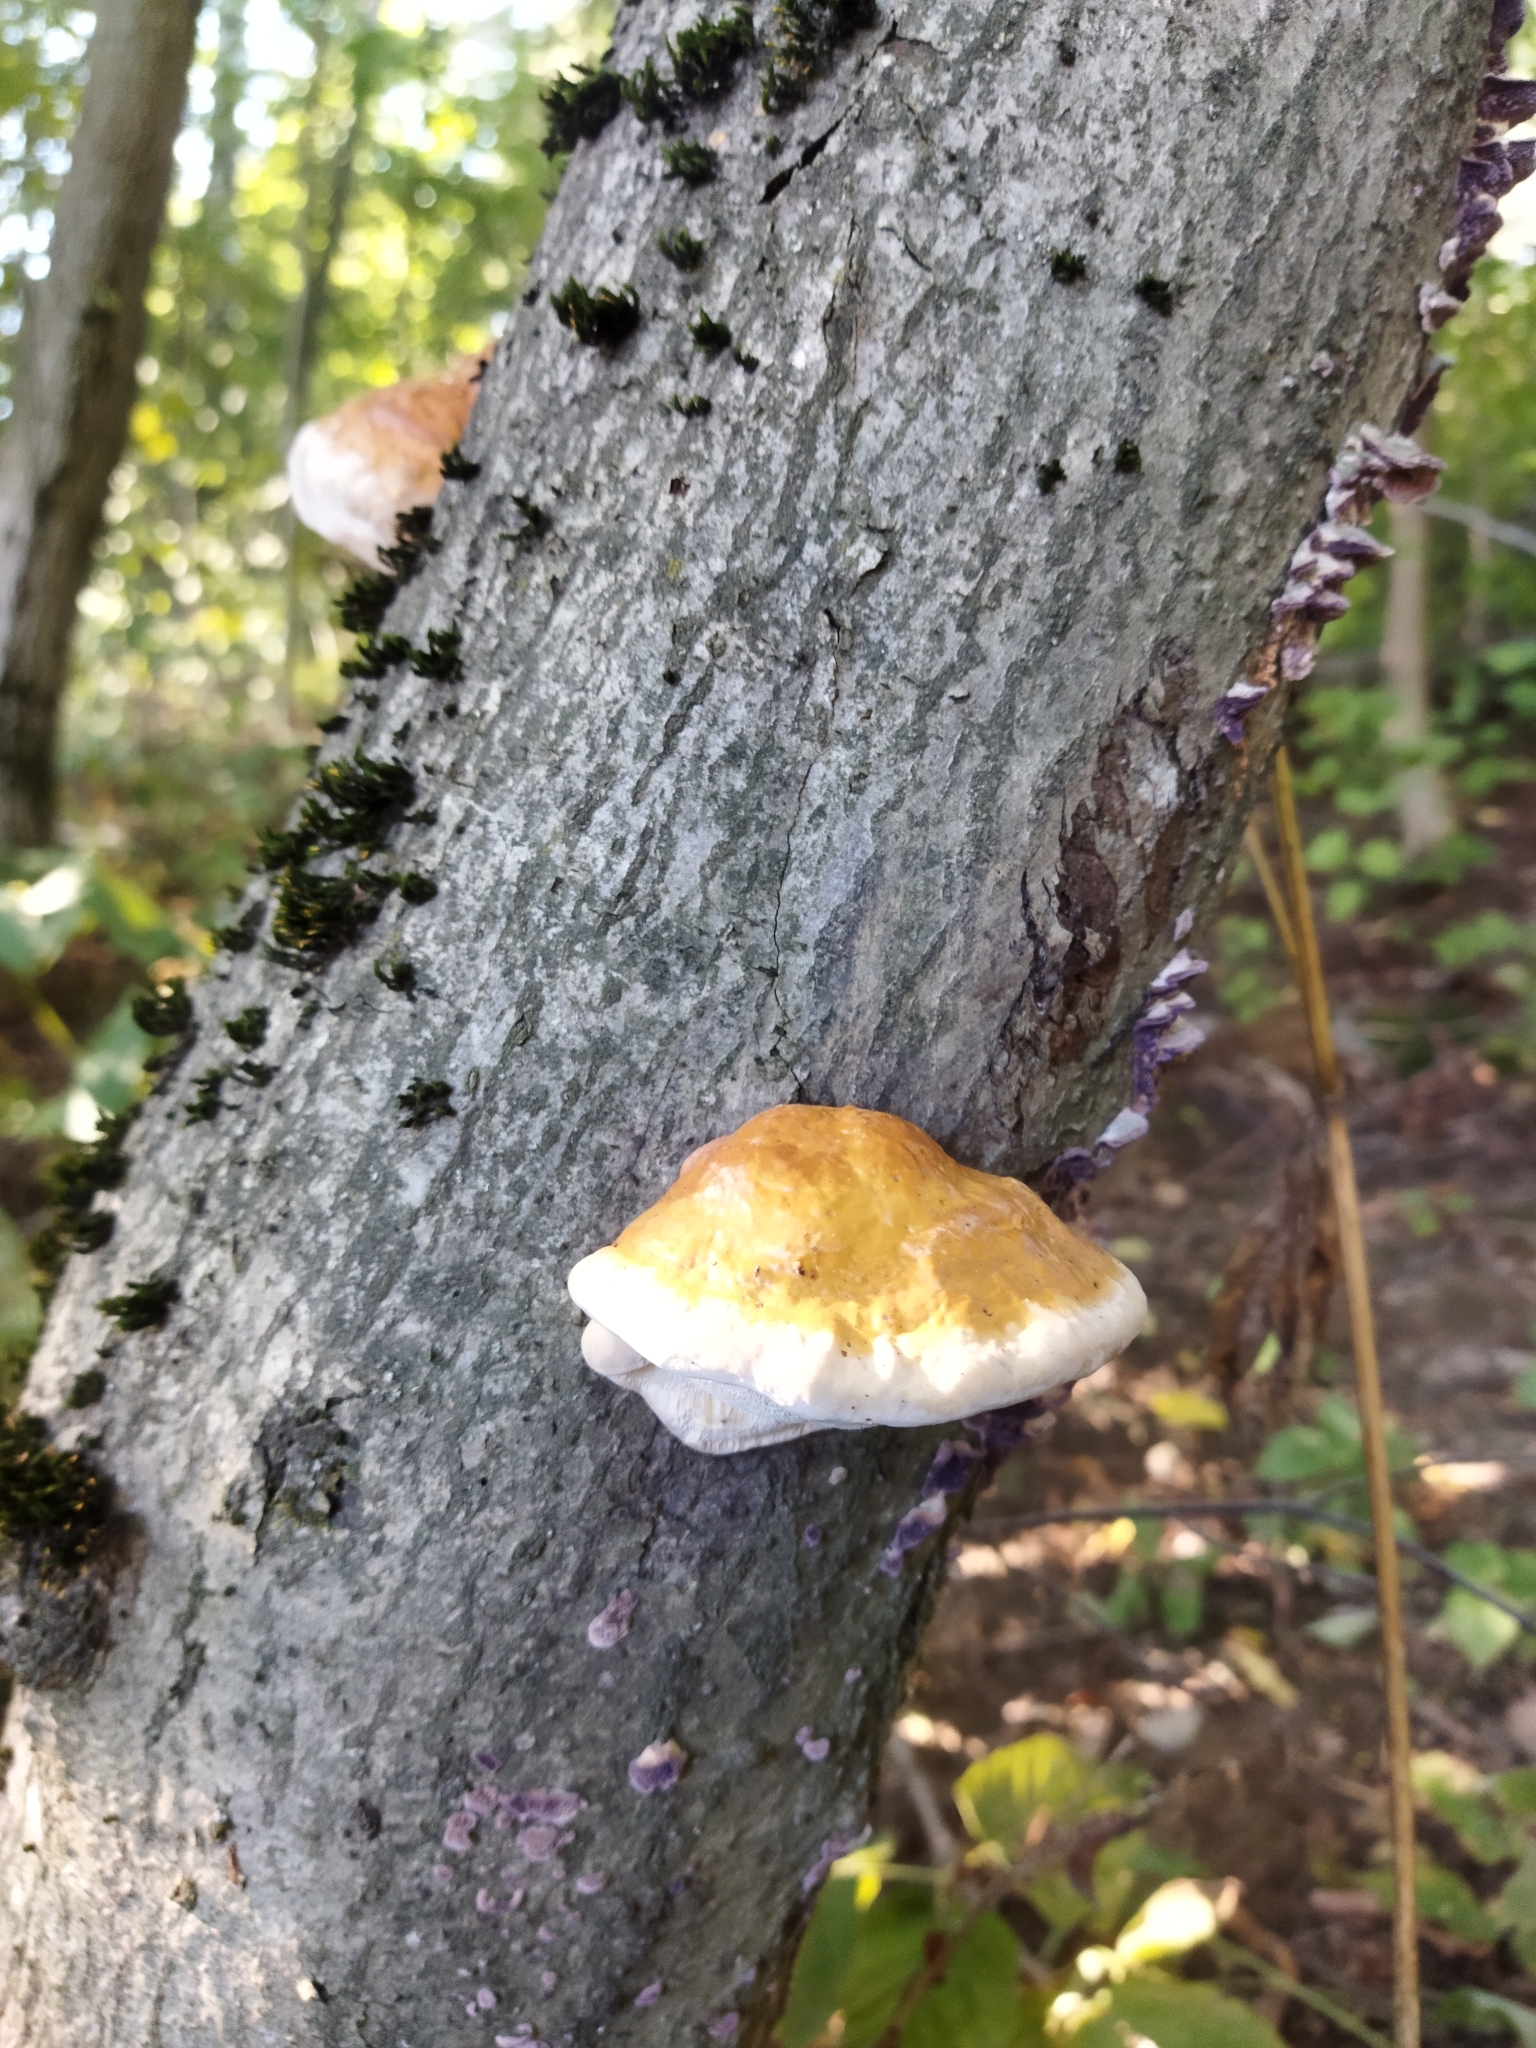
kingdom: Fungi
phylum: Basidiomycota
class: Agaricomycetes
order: Polyporales
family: Fomitopsidaceae
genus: Fomitopsis
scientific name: Fomitopsis pinicola
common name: Red-belted bracket
